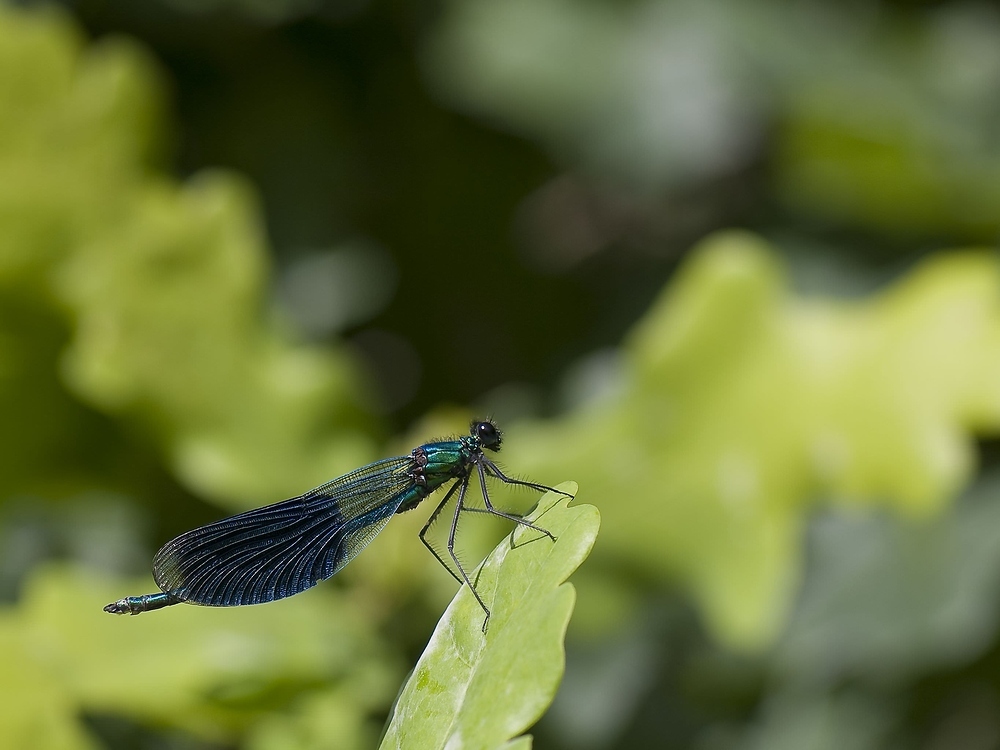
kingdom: Animalia
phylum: Arthropoda
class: Insecta
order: Odonata
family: Calopterygidae
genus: Calopteryx
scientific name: Calopteryx splendens
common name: Banded demoiselle
